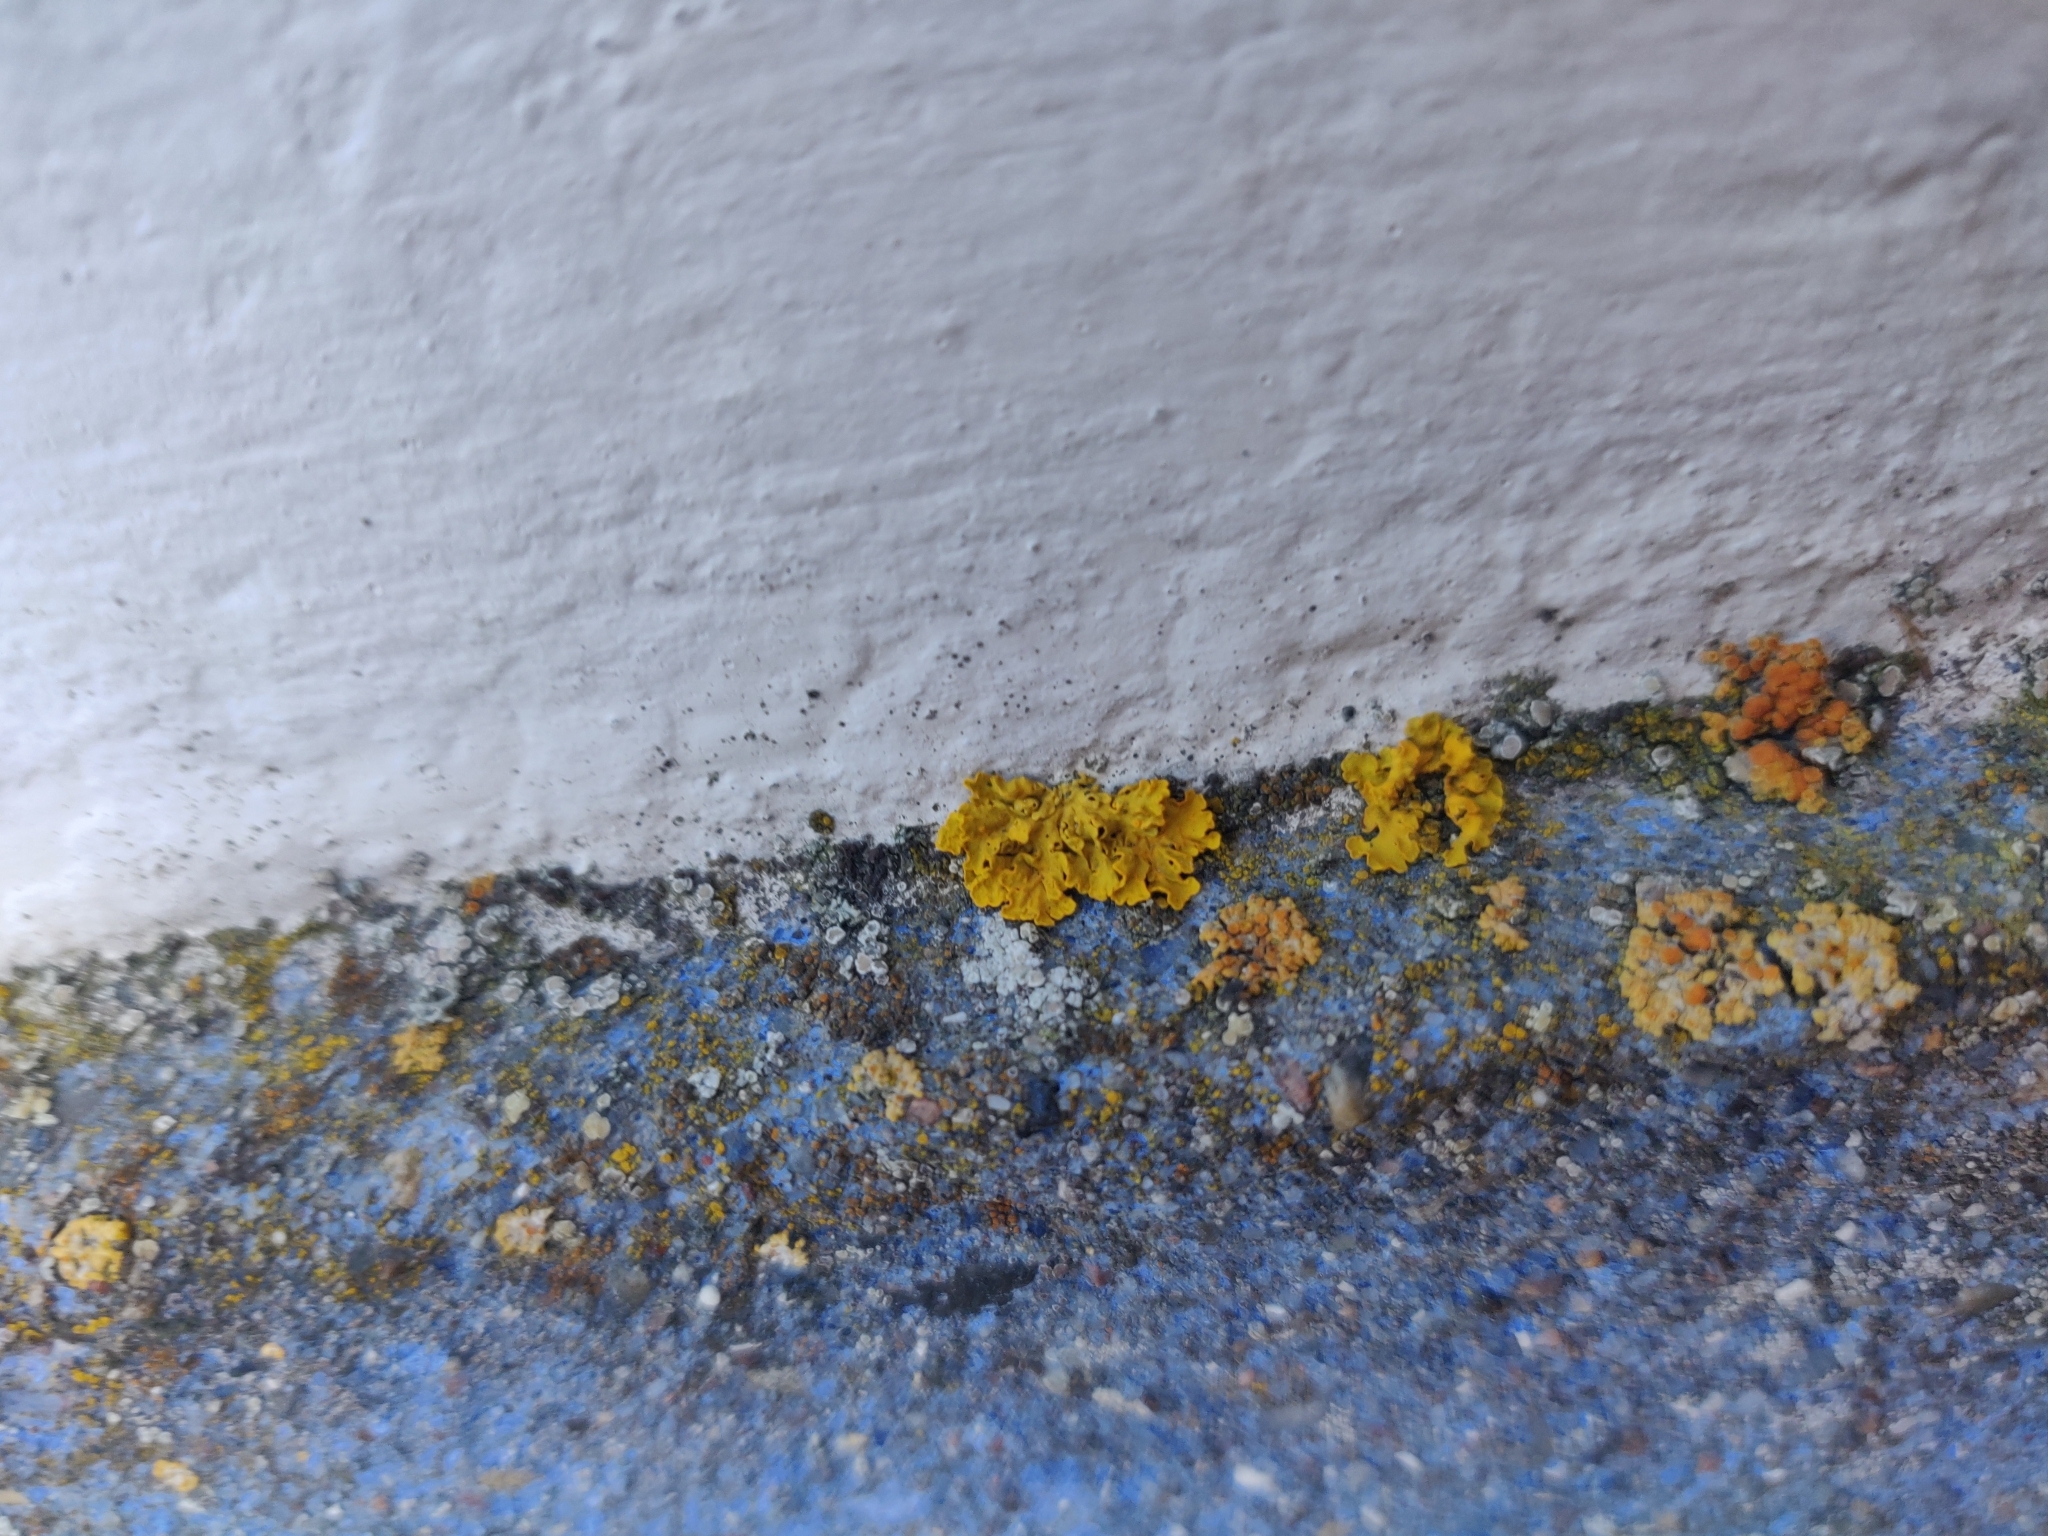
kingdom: Fungi
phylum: Ascomycota
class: Lecanoromycetes
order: Teloschistales
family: Teloschistaceae
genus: Xanthoria
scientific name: Xanthoria parietina
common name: Common orange lichen
